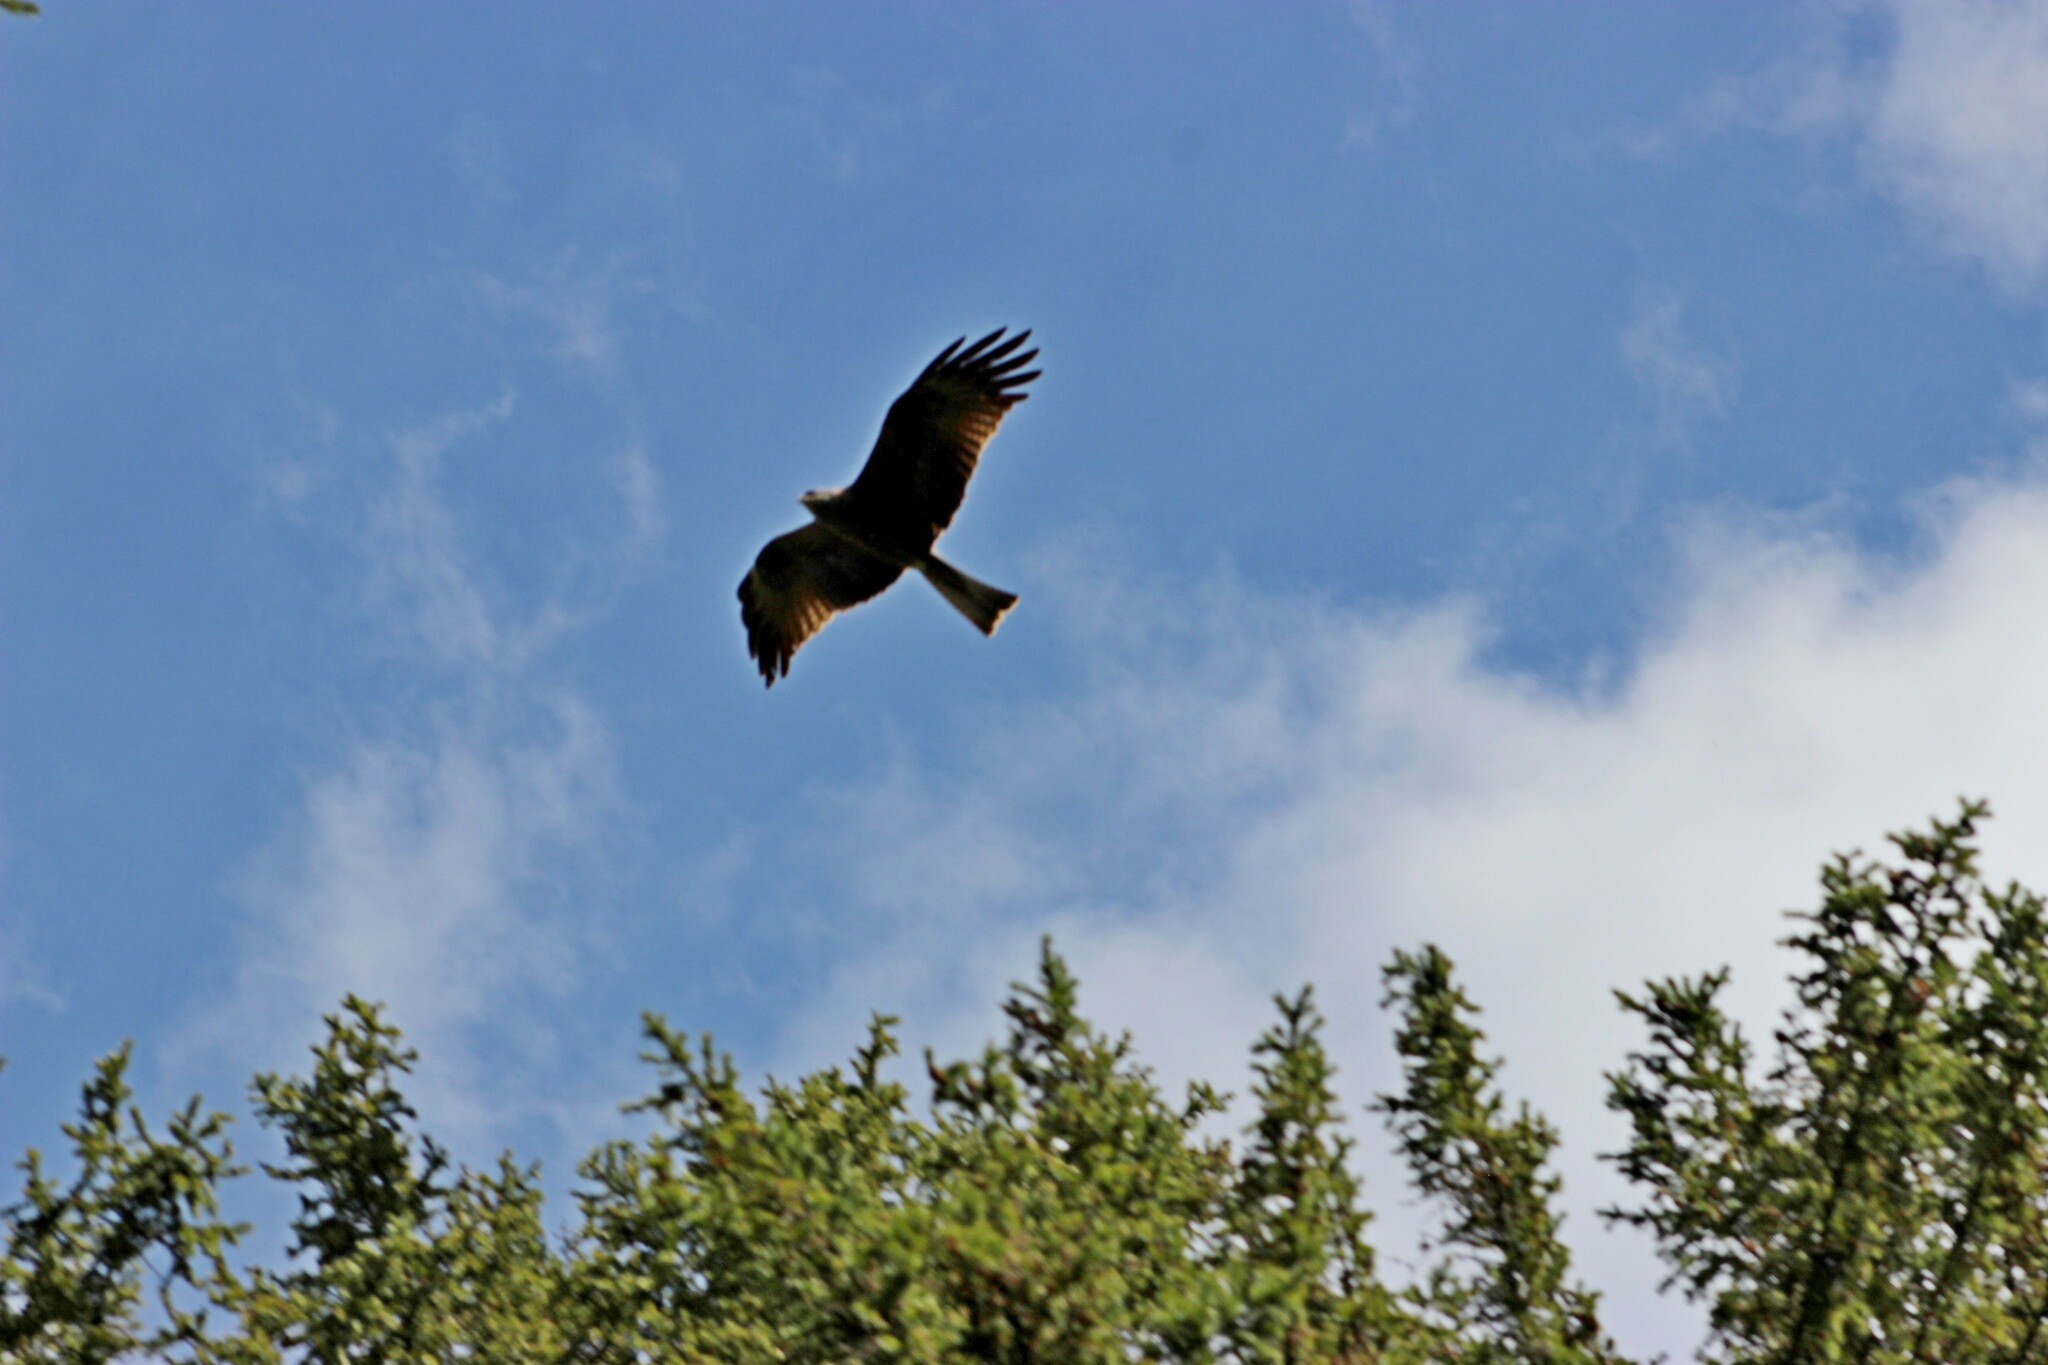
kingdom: Animalia
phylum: Chordata
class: Aves
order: Accipitriformes
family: Accipitridae
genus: Milvus
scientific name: Milvus migrans
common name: Black kite
